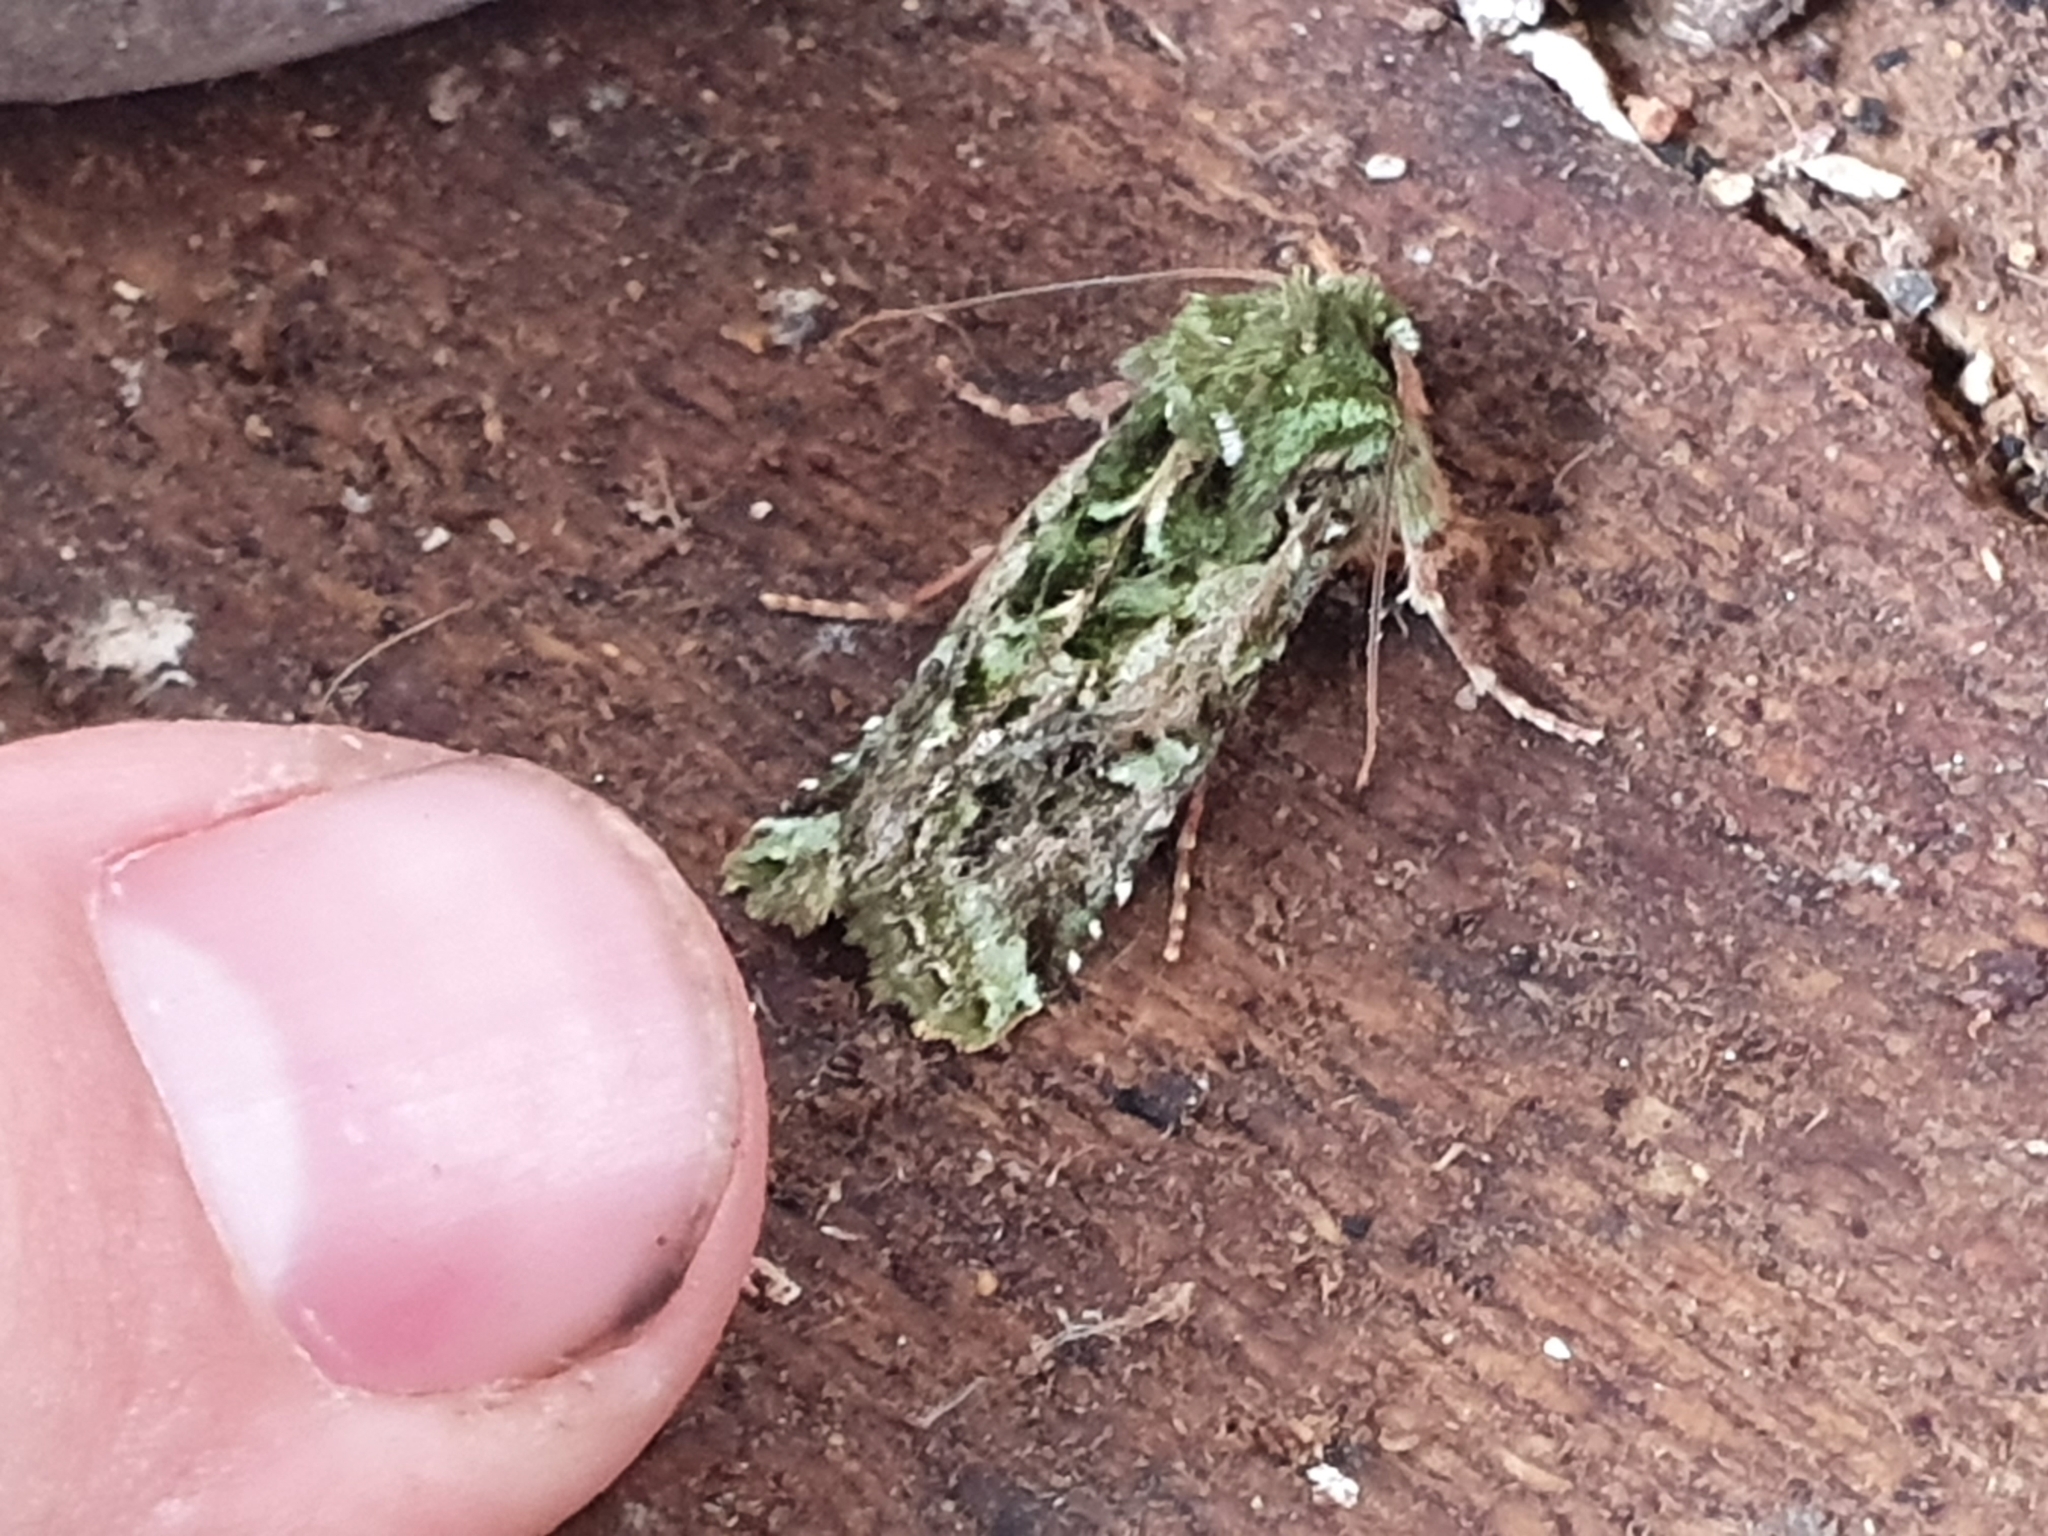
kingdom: Animalia
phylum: Arthropoda
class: Insecta
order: Lepidoptera
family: Noctuidae
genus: Feredayia
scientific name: Feredayia grammosa
